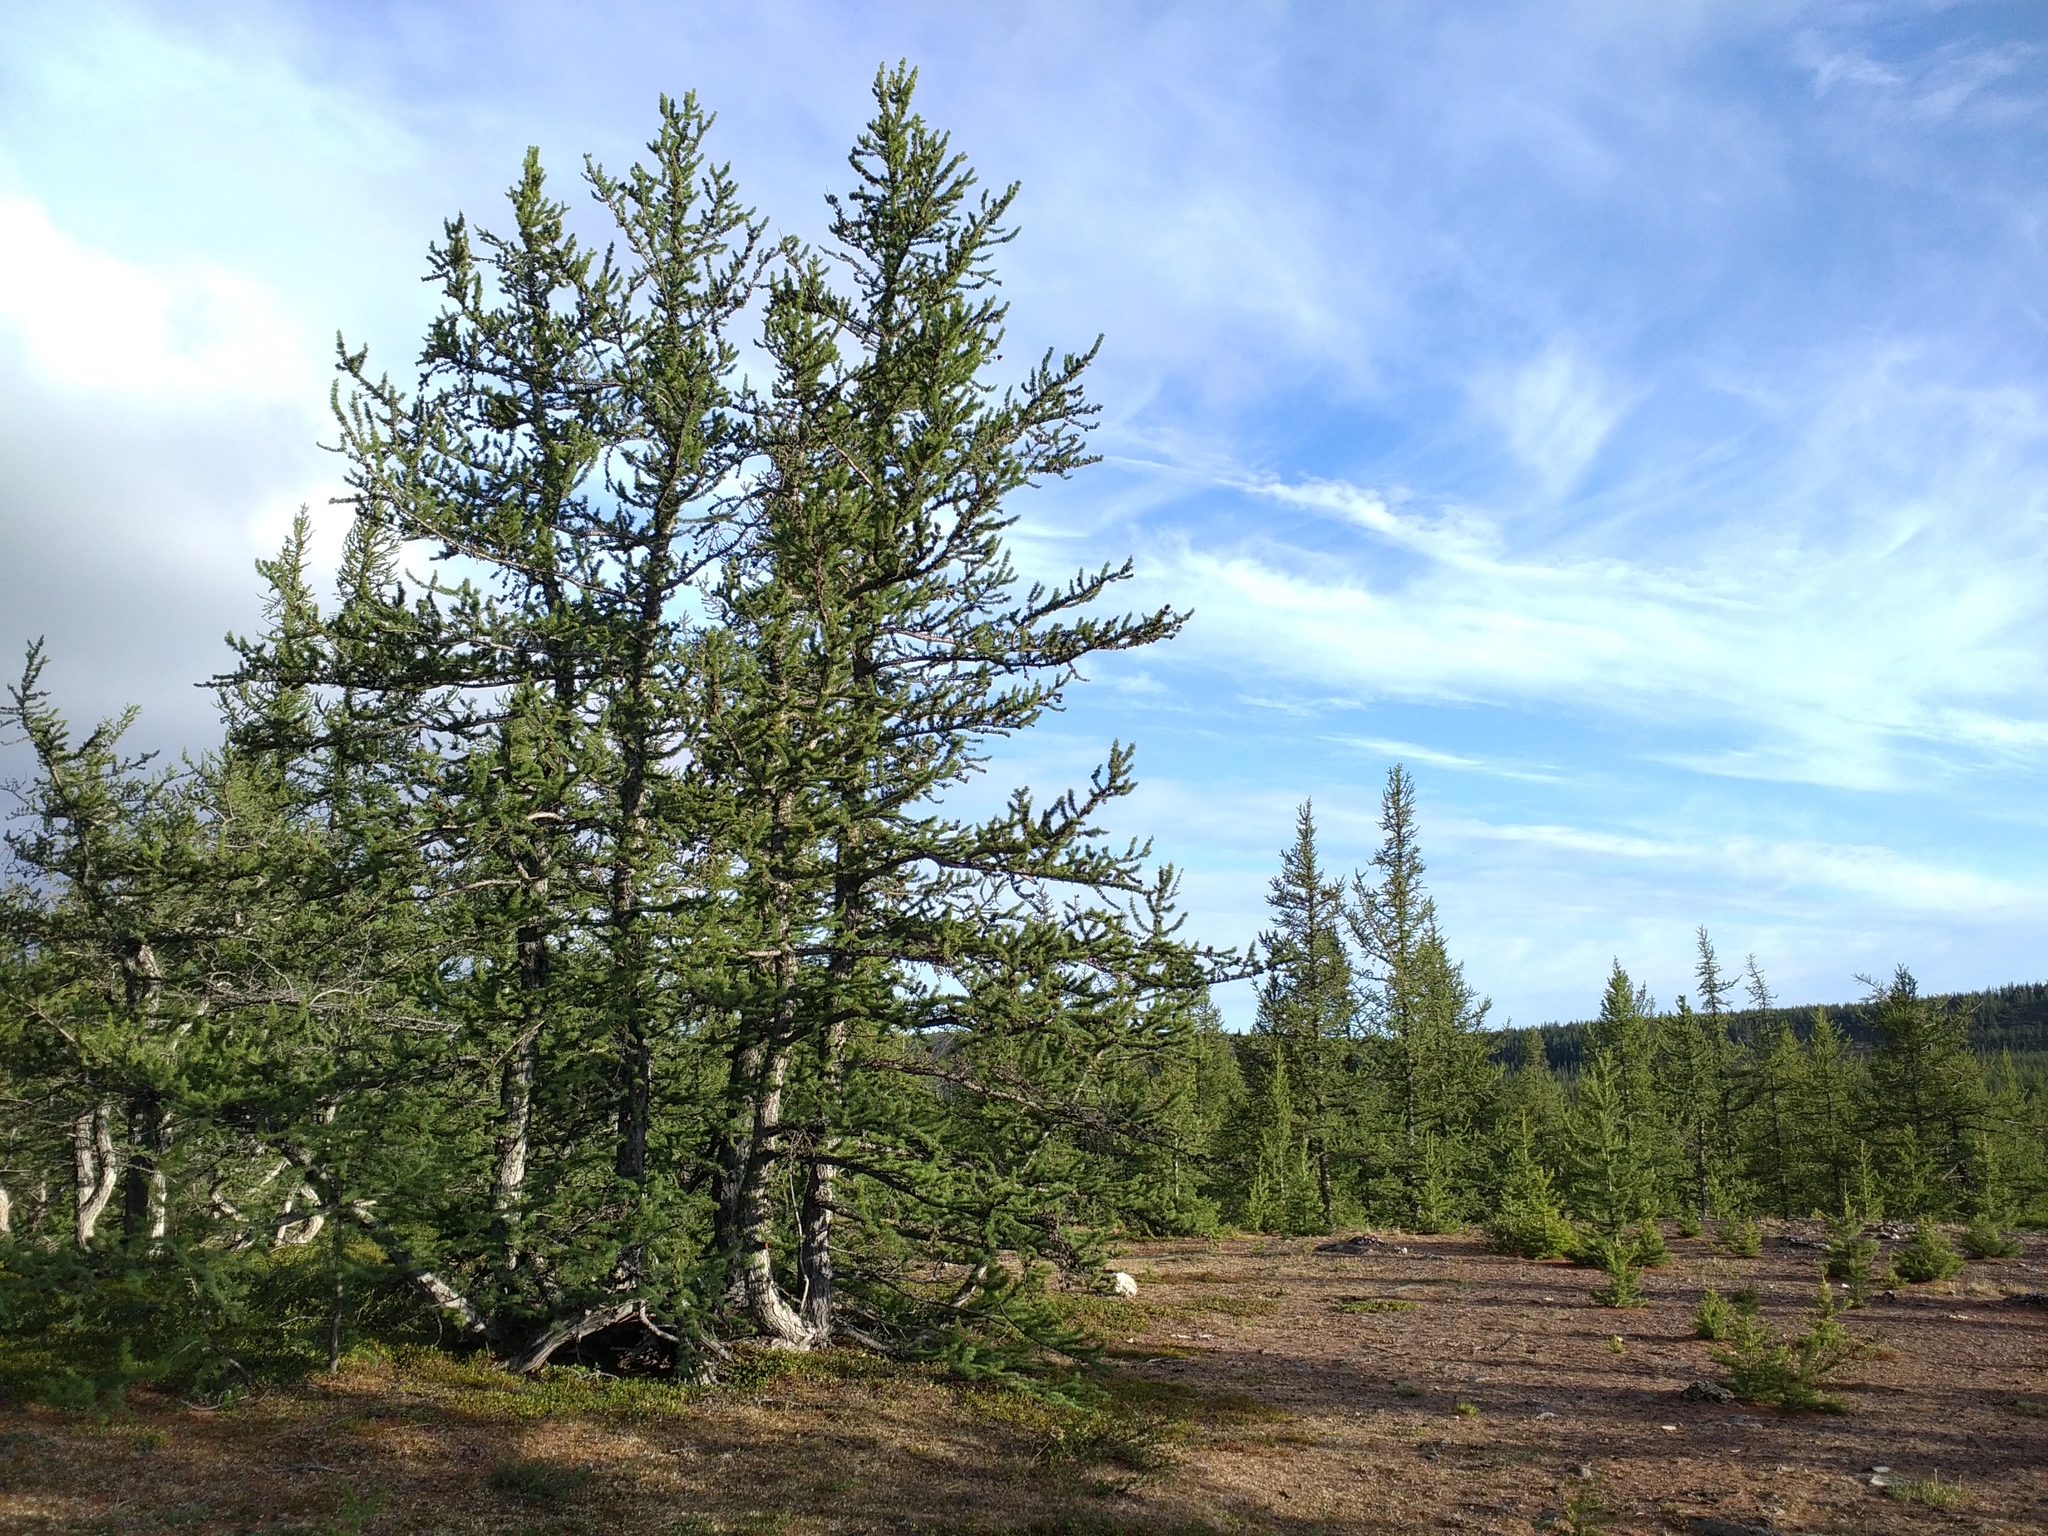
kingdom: Plantae
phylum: Tracheophyta
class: Pinopsida
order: Pinales
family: Pinaceae
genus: Larix
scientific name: Larix sibirica
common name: Siberian larch
